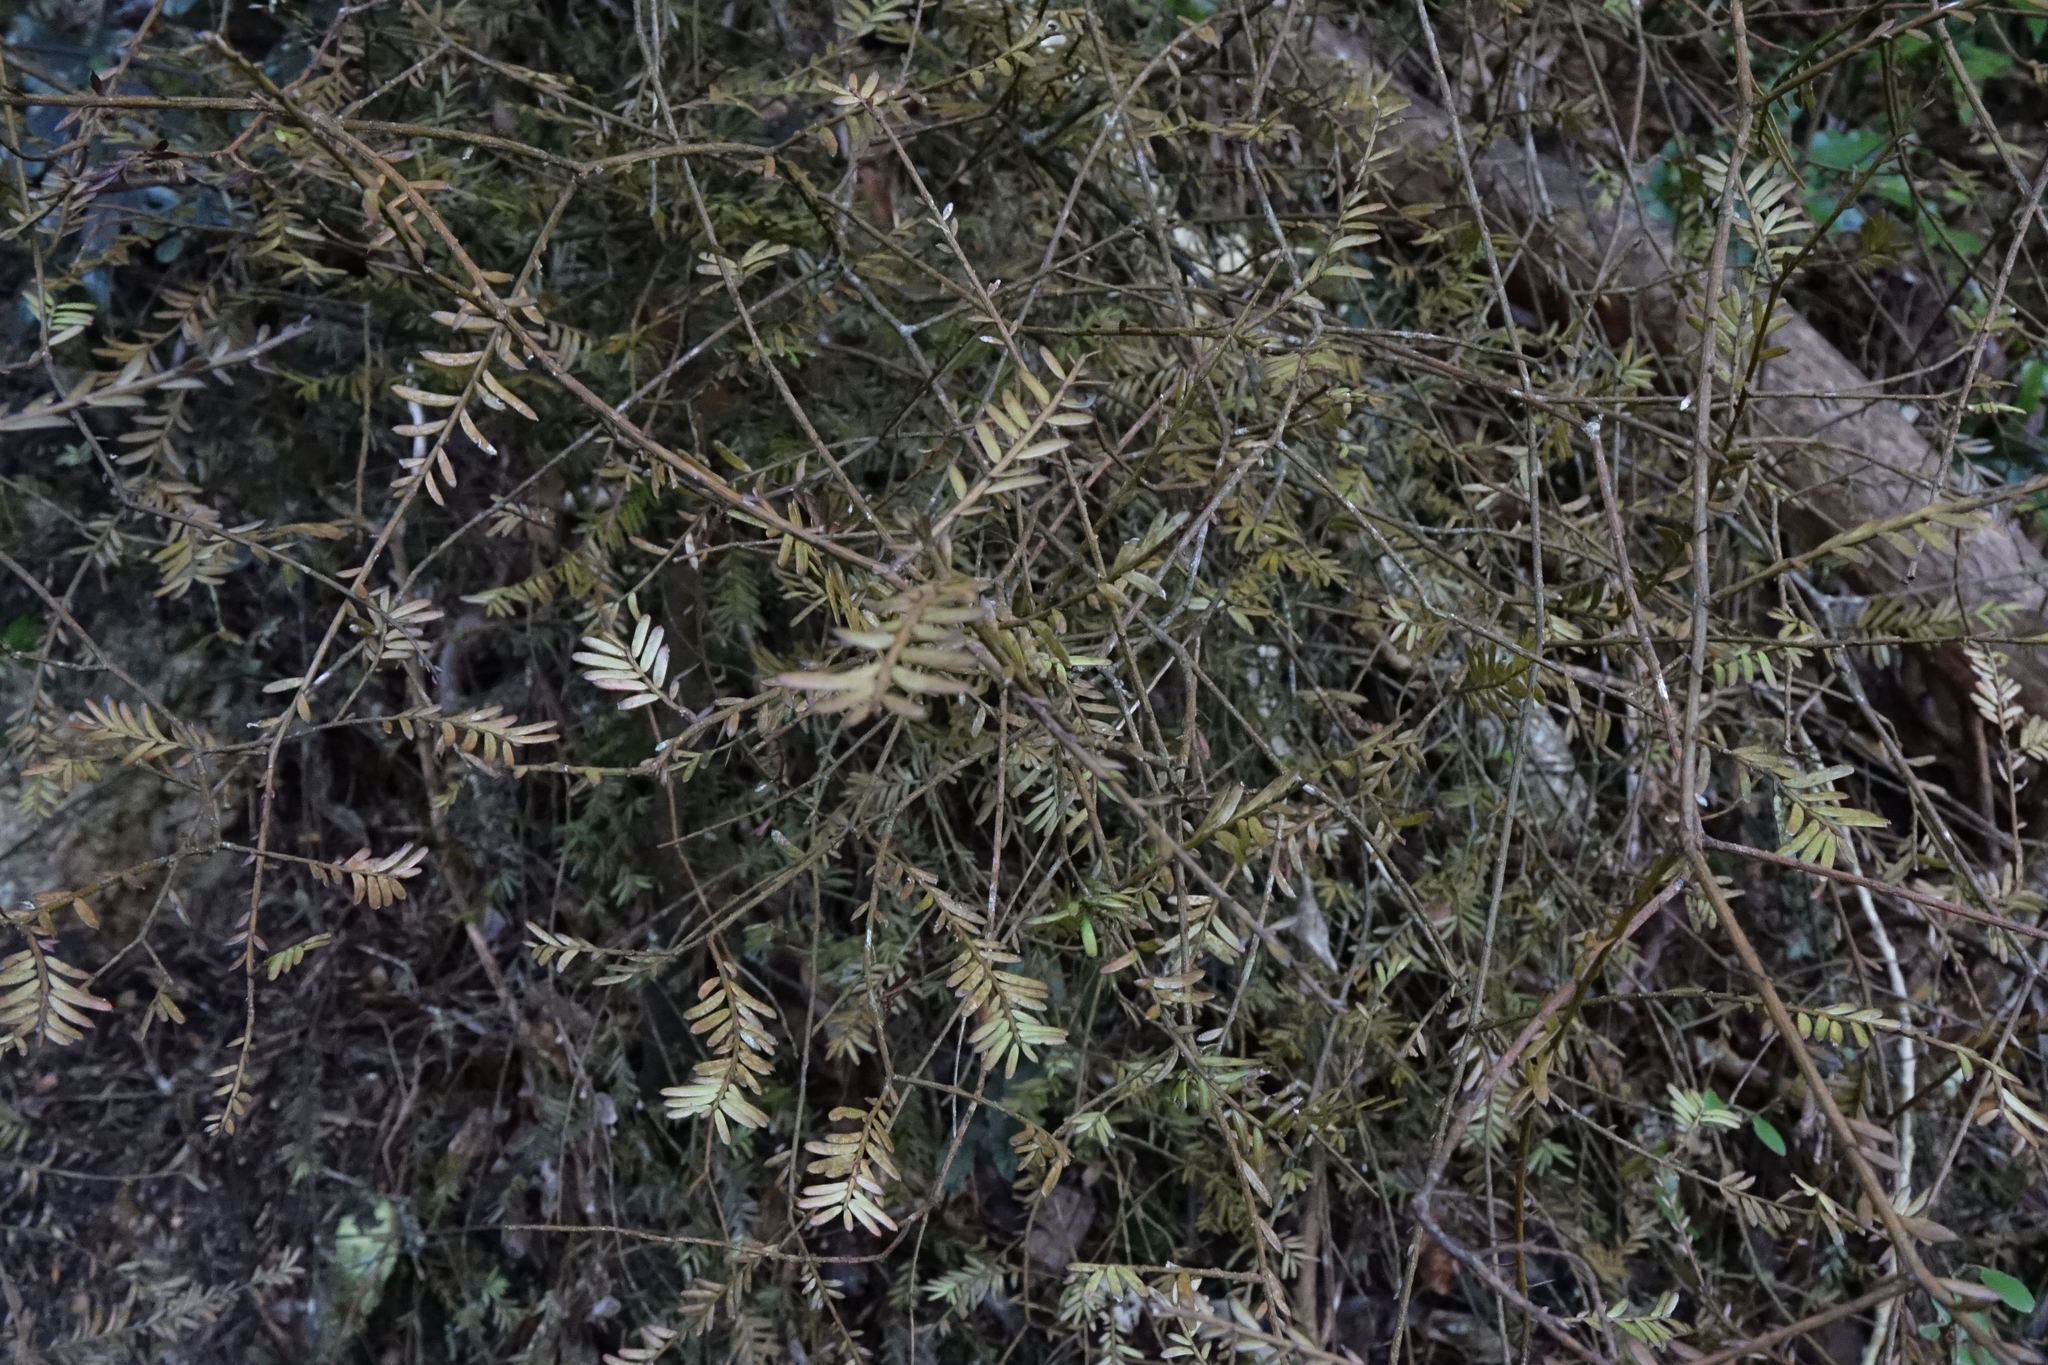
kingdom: Plantae
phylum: Tracheophyta
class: Pinopsida
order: Pinales
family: Podocarpaceae
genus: Prumnopitys
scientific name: Prumnopitys taxifolia
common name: Matai
